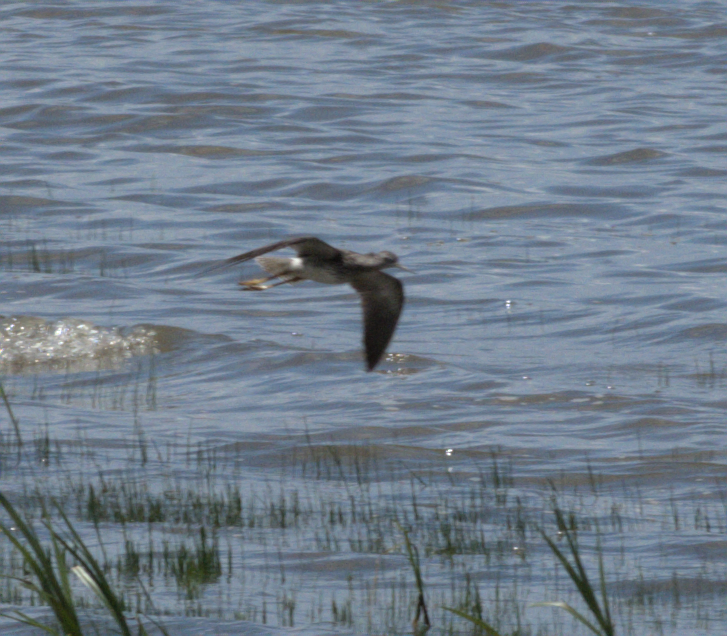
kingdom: Animalia
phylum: Chordata
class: Aves
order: Charadriiformes
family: Scolopacidae
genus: Tringa
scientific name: Tringa flavipes
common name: Lesser yellowlegs
